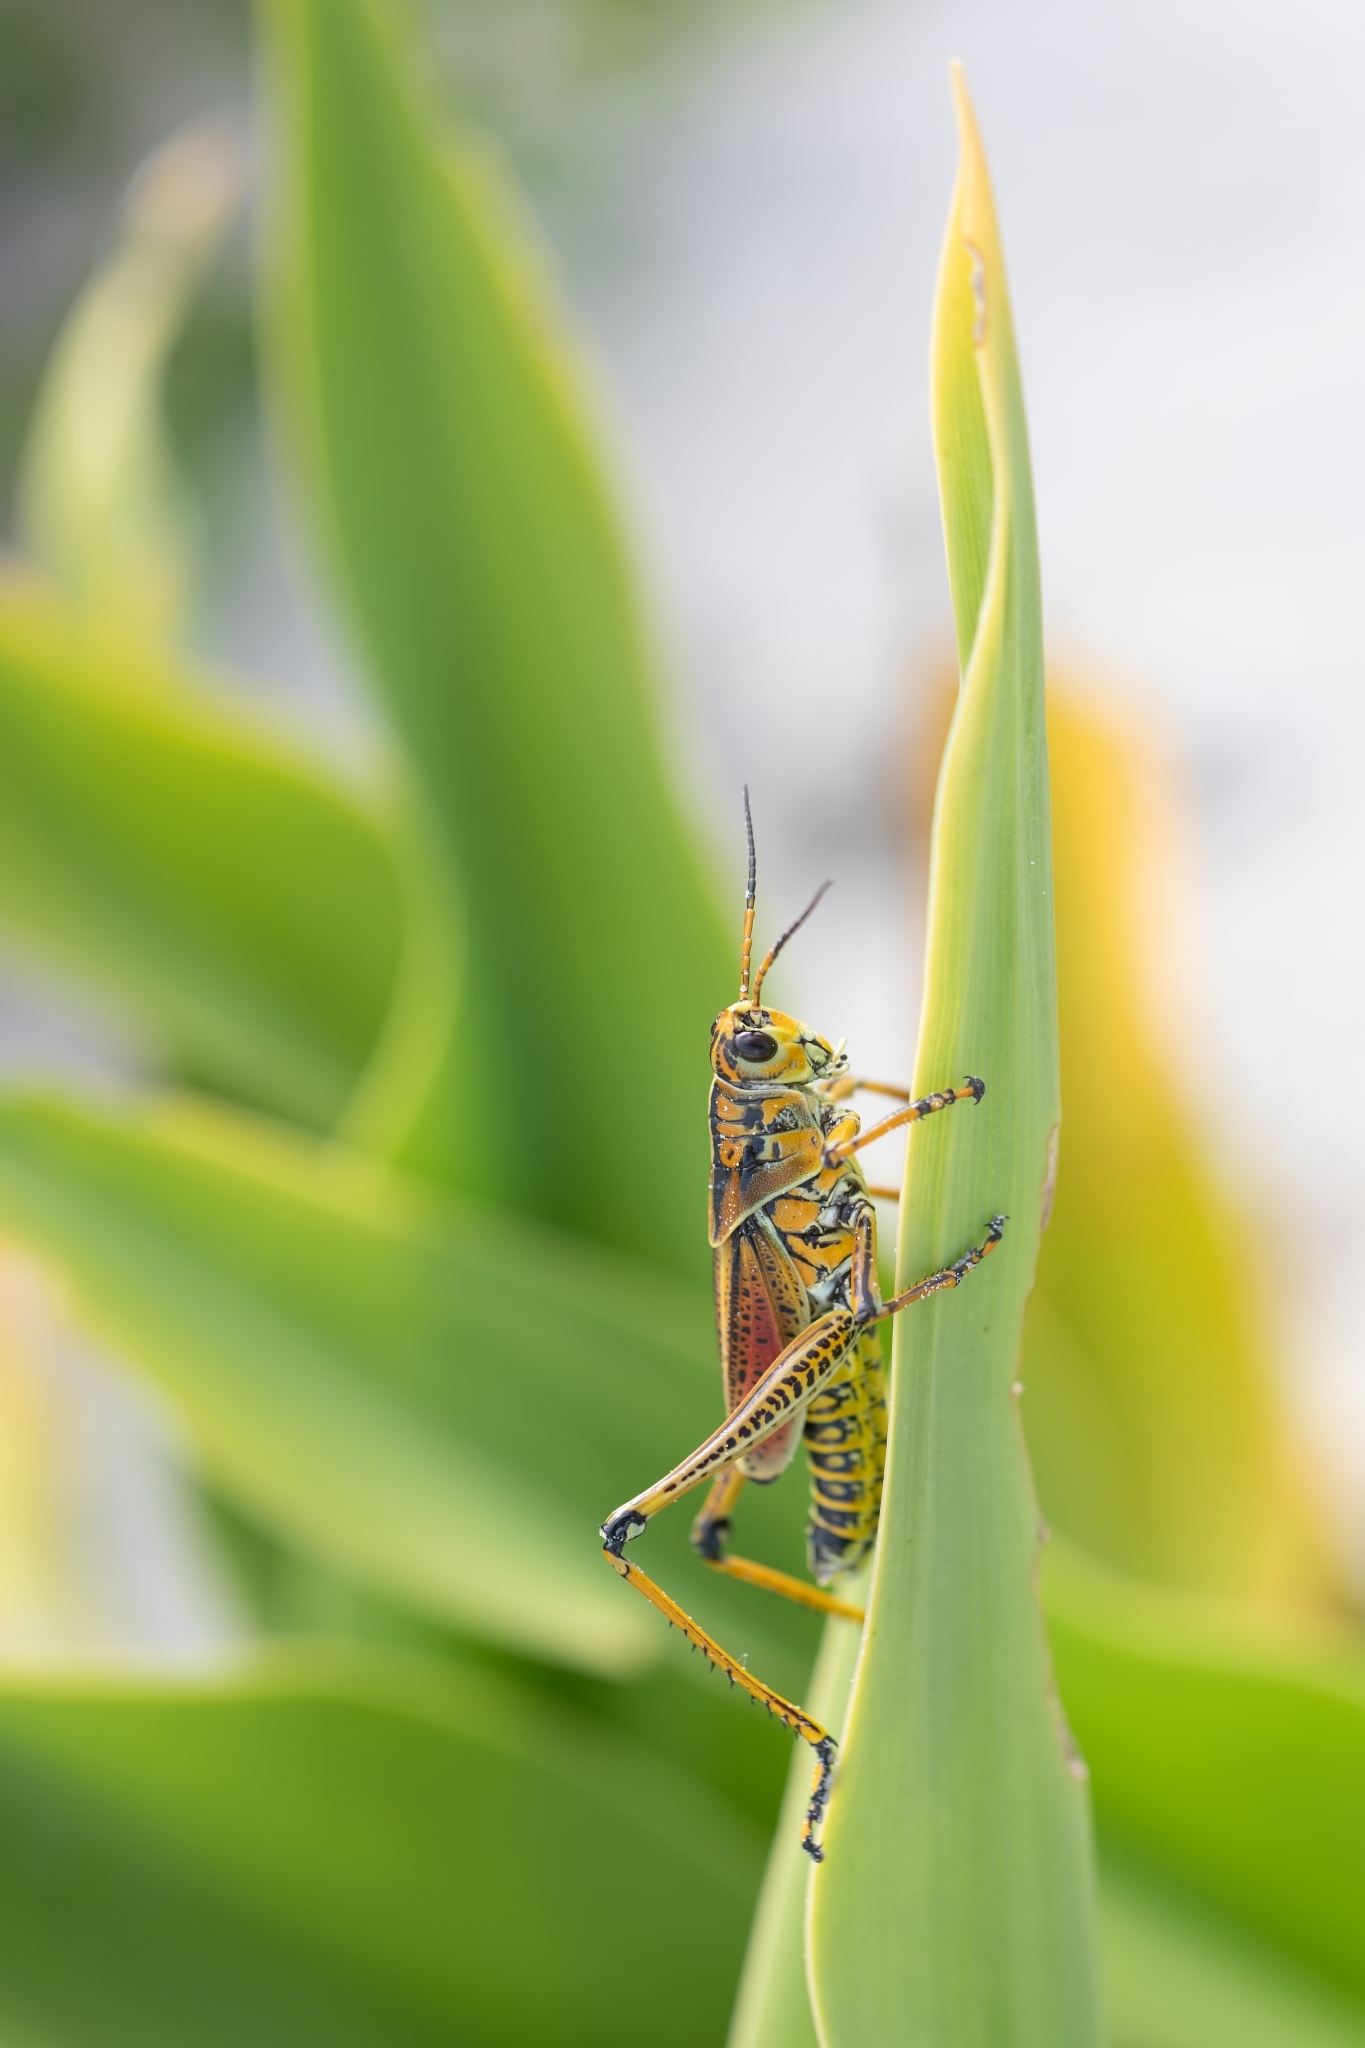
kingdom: Animalia
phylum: Arthropoda
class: Insecta
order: Orthoptera
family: Romaleidae
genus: Romalea
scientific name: Romalea microptera
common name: Eastern lubber grasshopper
